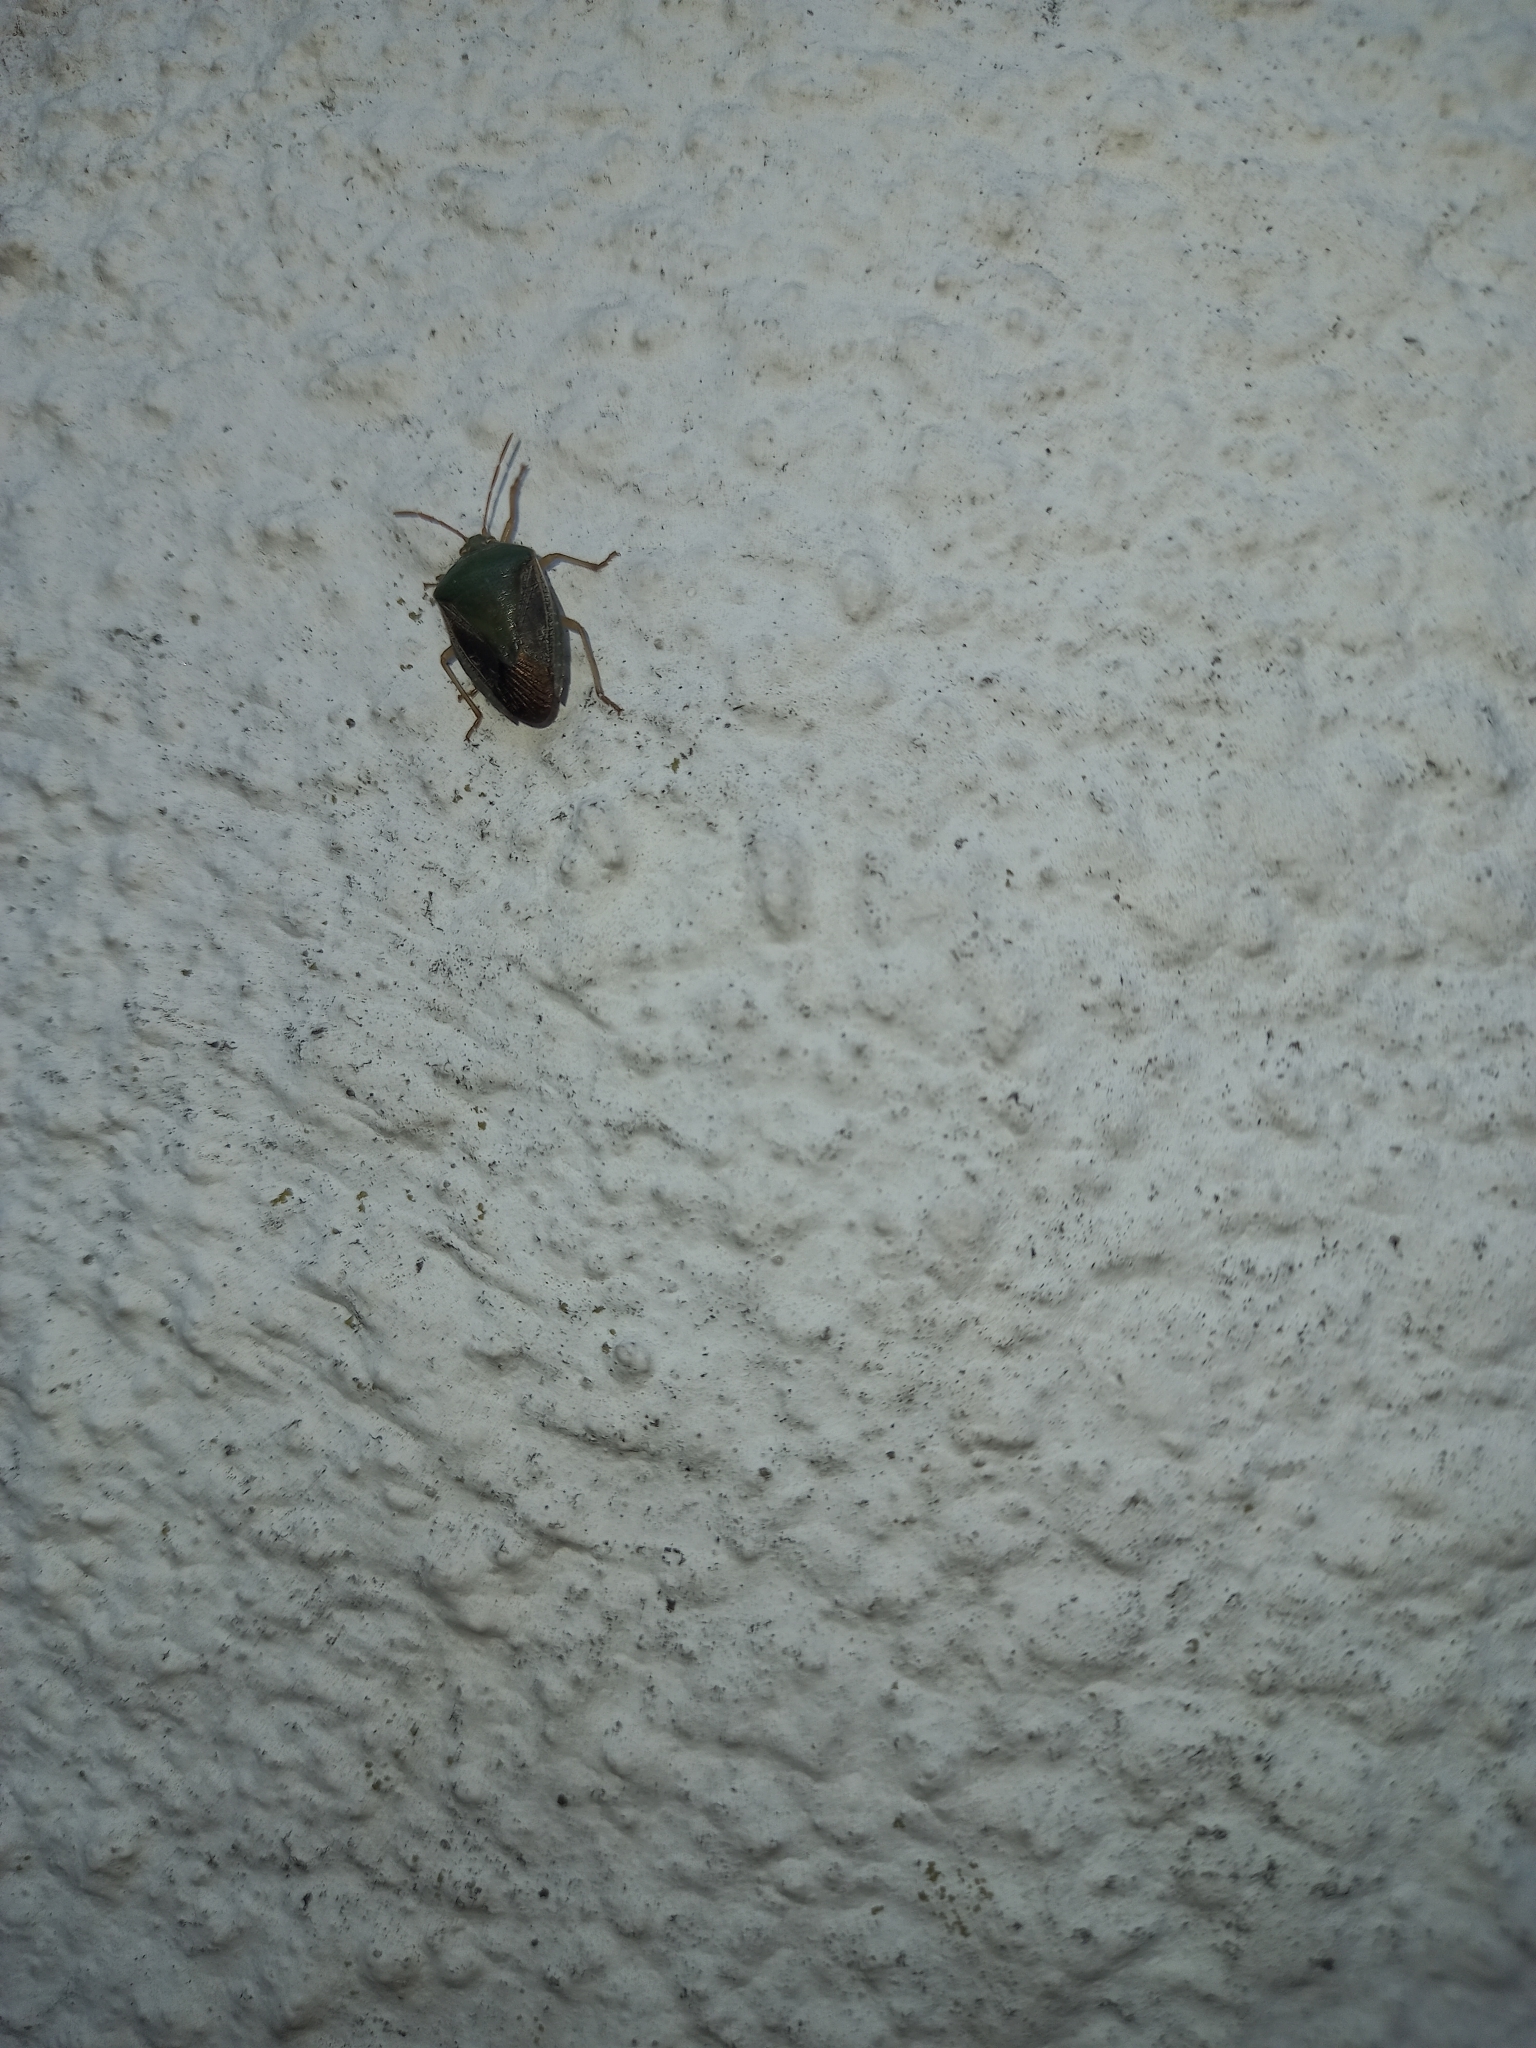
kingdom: Animalia
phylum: Arthropoda
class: Insecta
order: Hemiptera
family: Pentatomidae
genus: Edessa
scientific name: Edessa meditabunda
